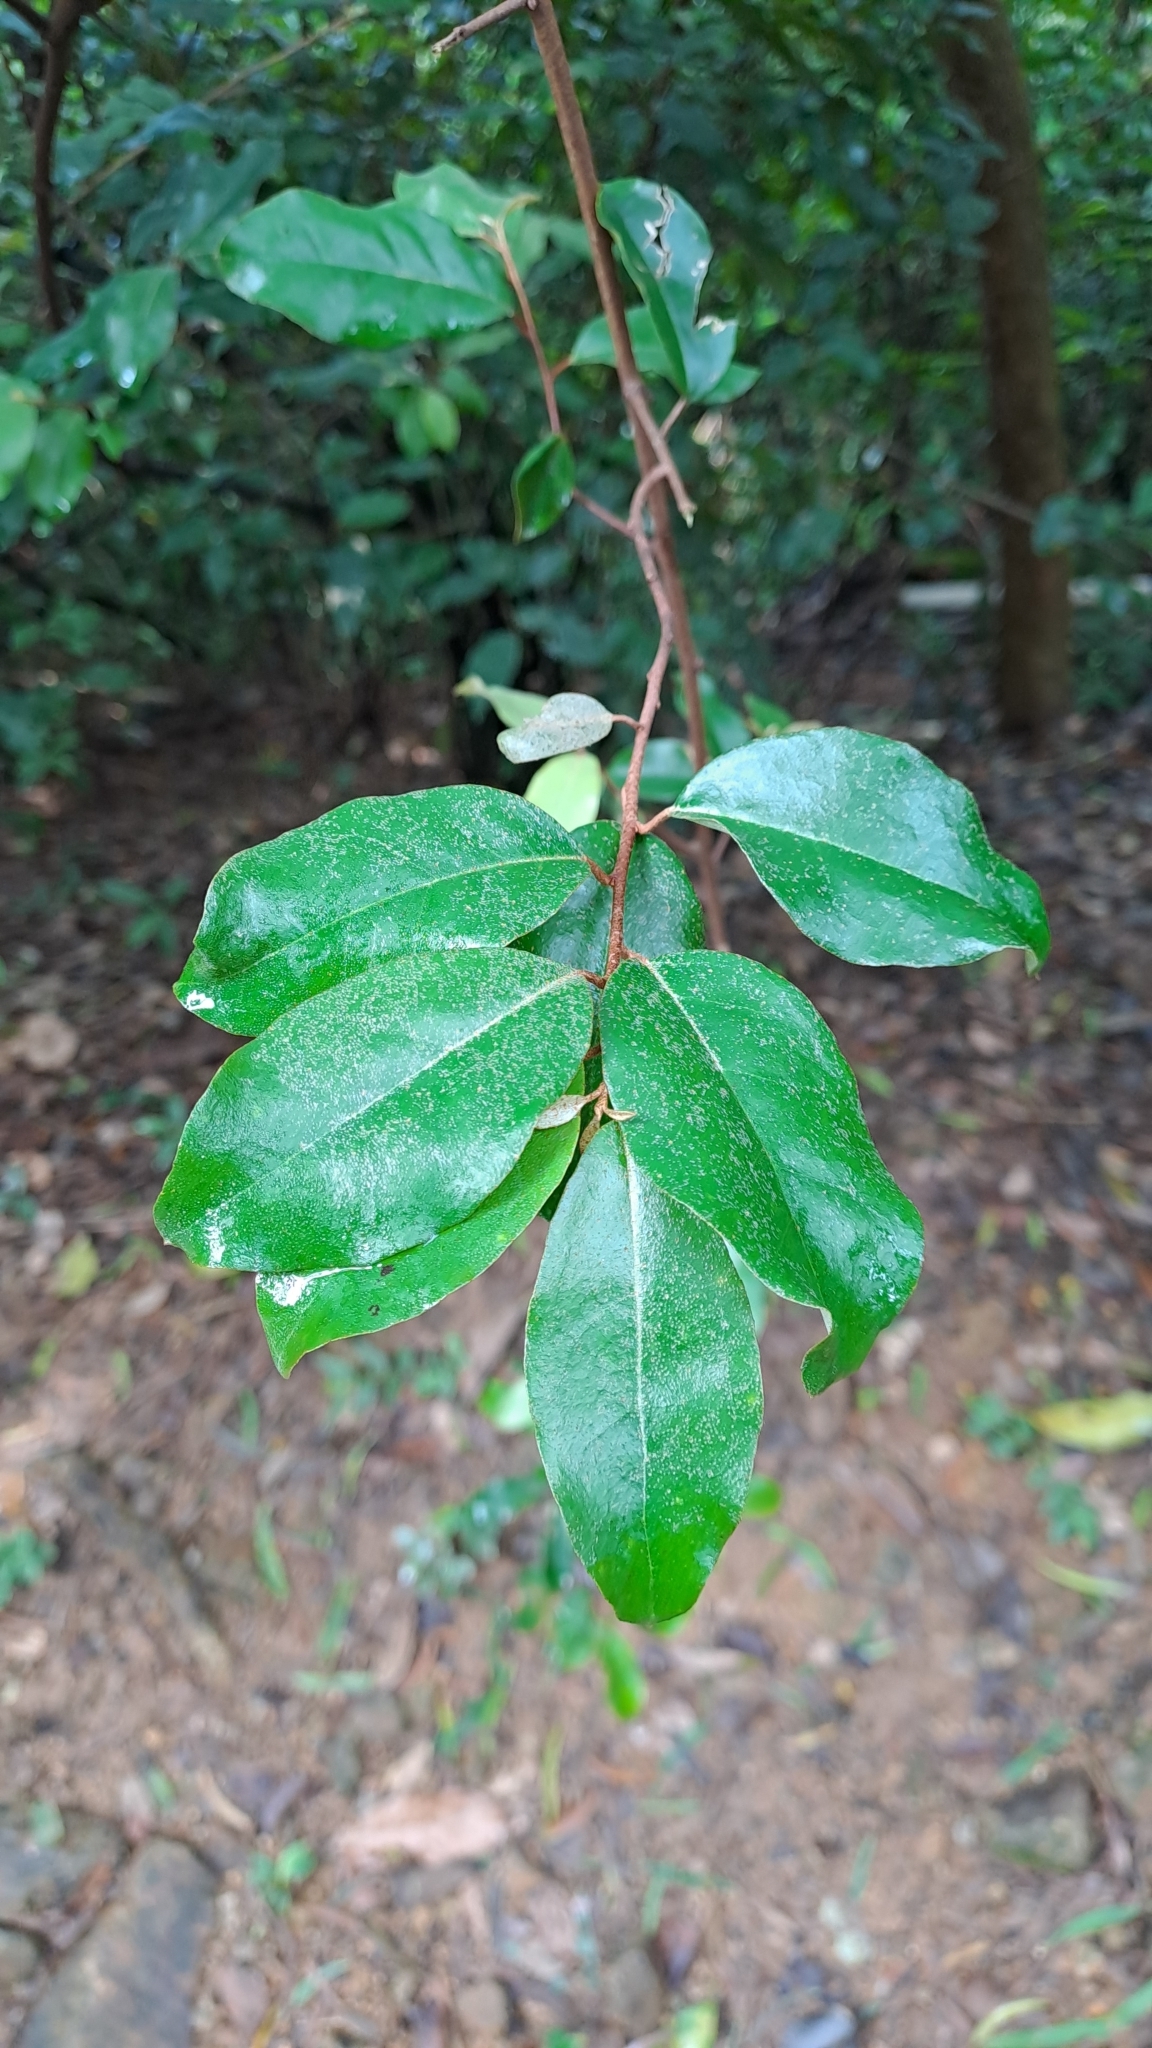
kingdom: Plantae
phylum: Tracheophyta
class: Magnoliopsida
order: Rosales
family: Elaeagnaceae
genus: Elaeagnus
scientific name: Elaeagnus loureiroi
